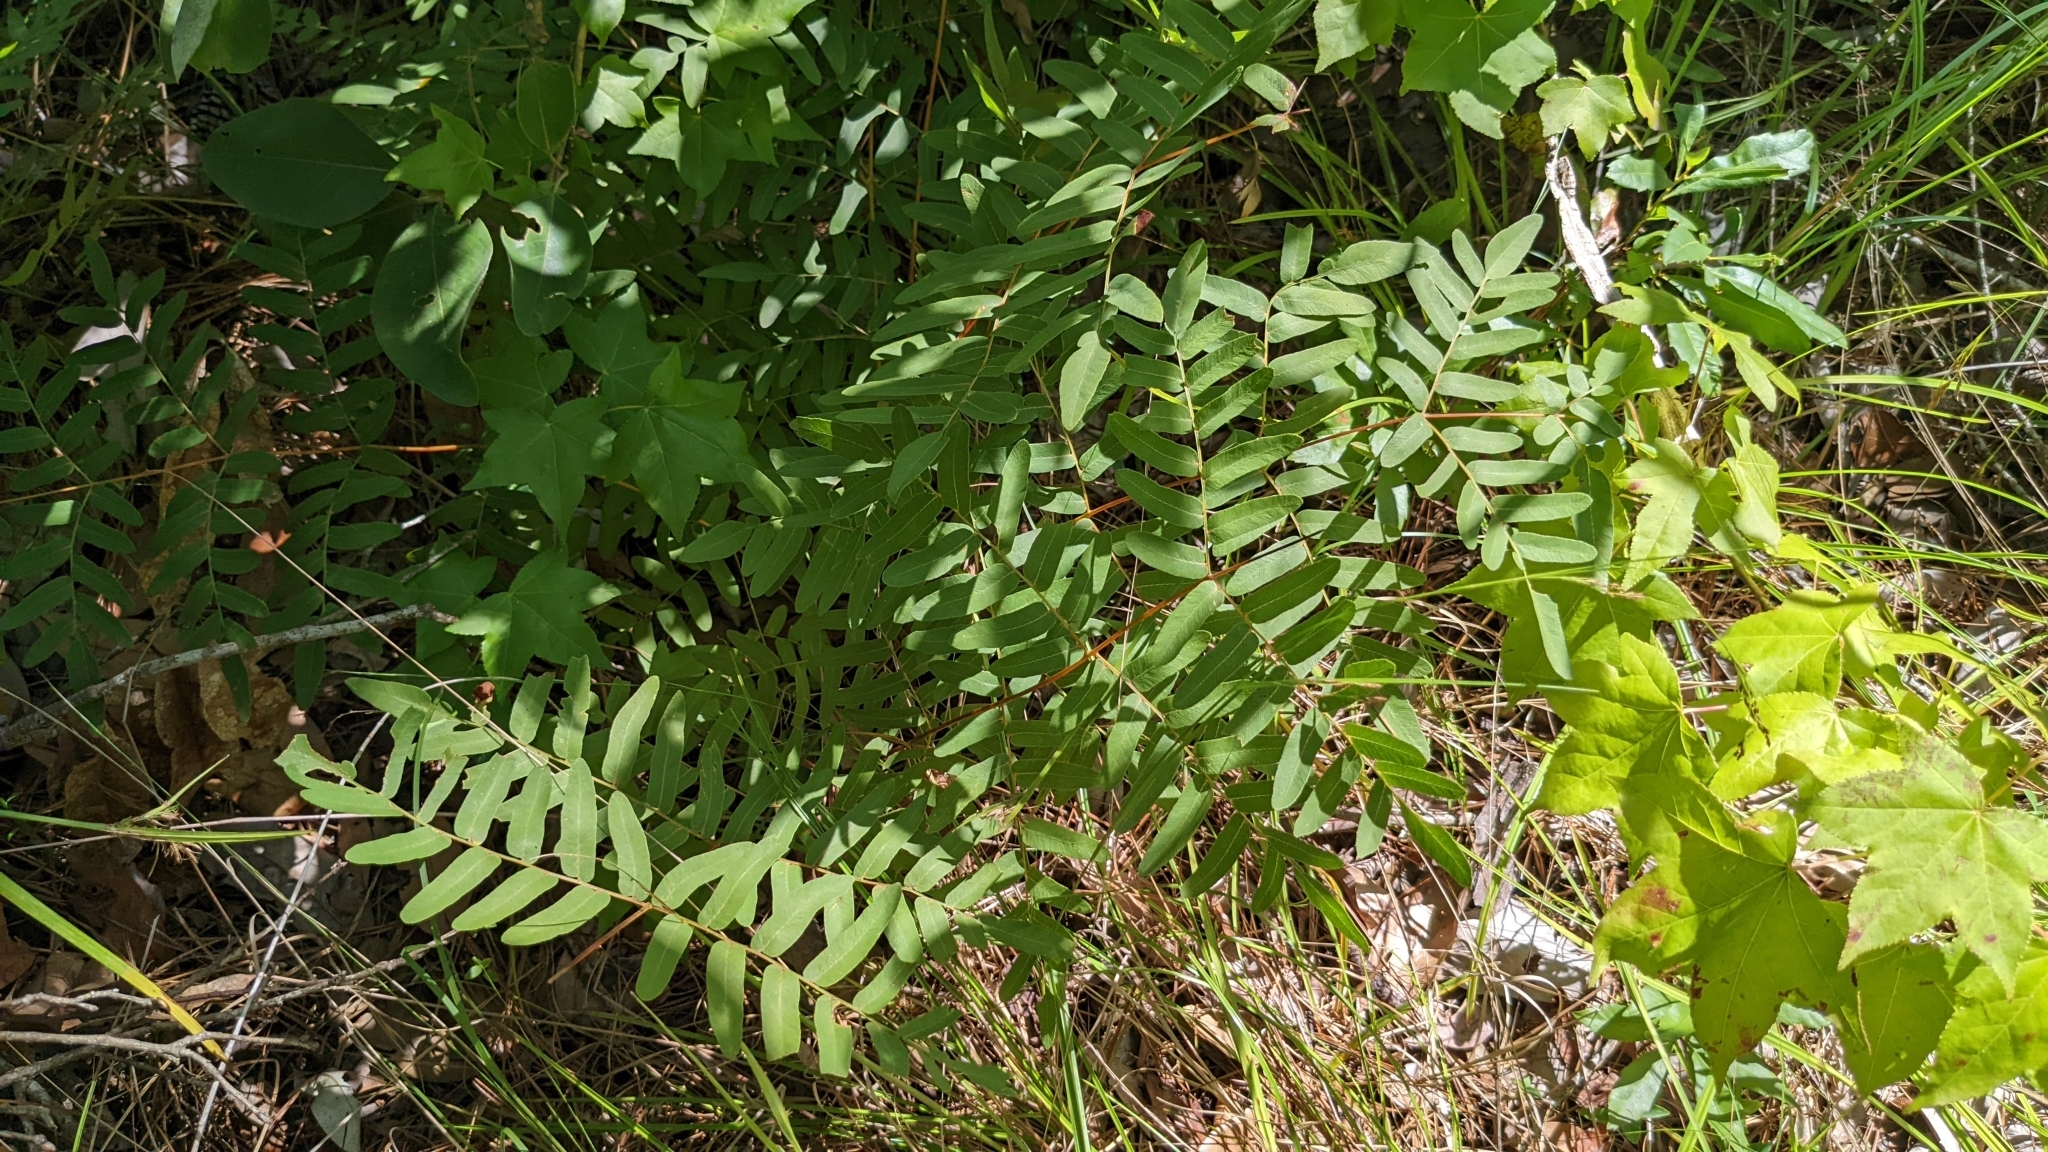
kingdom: Plantae
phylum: Tracheophyta
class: Polypodiopsida
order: Osmundales
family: Osmundaceae
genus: Osmunda
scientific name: Osmunda spectabilis
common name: American royal fern
